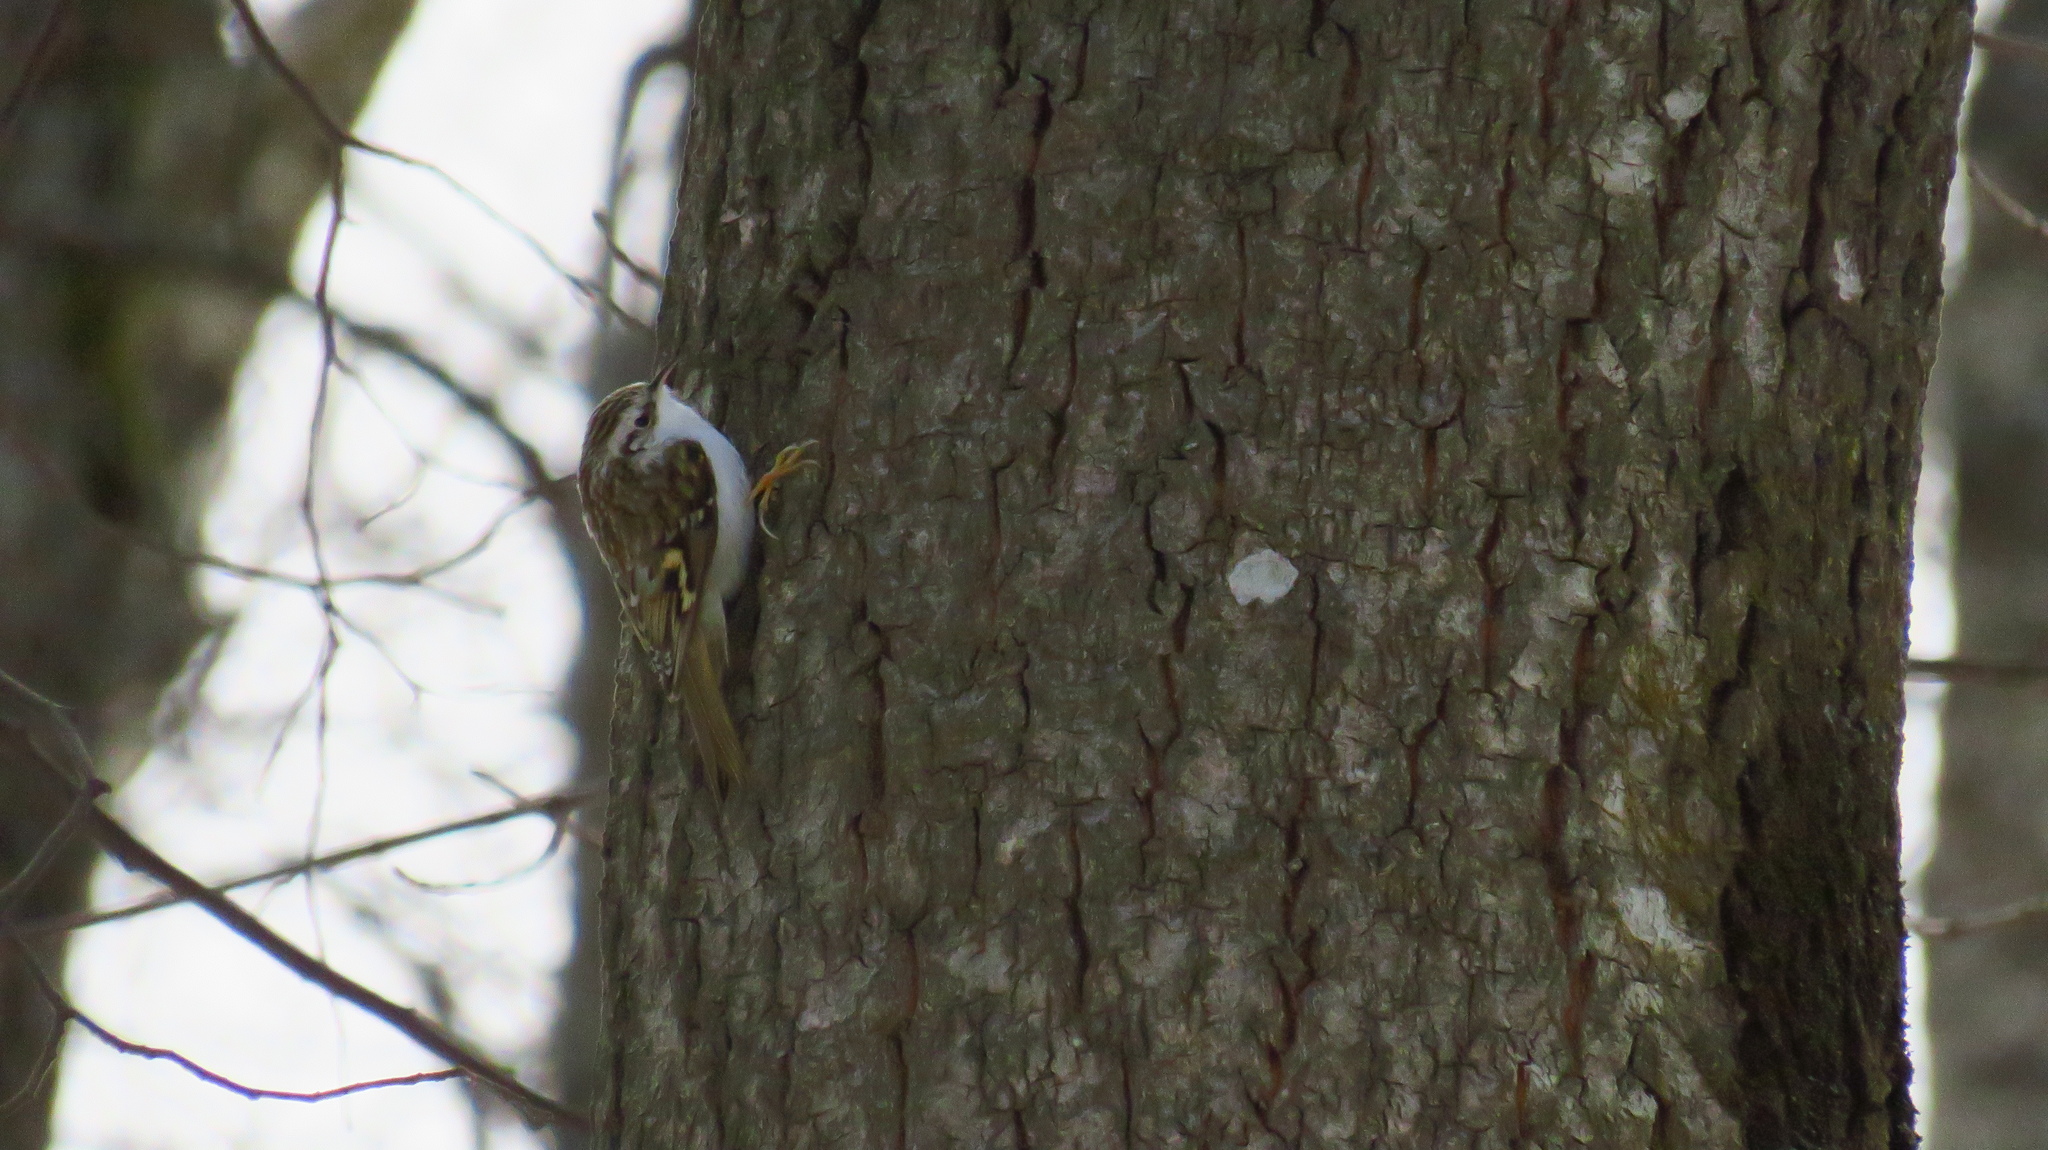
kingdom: Animalia
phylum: Chordata
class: Aves
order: Passeriformes
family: Certhiidae
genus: Certhia
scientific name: Certhia familiaris
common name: Eurasian treecreeper
